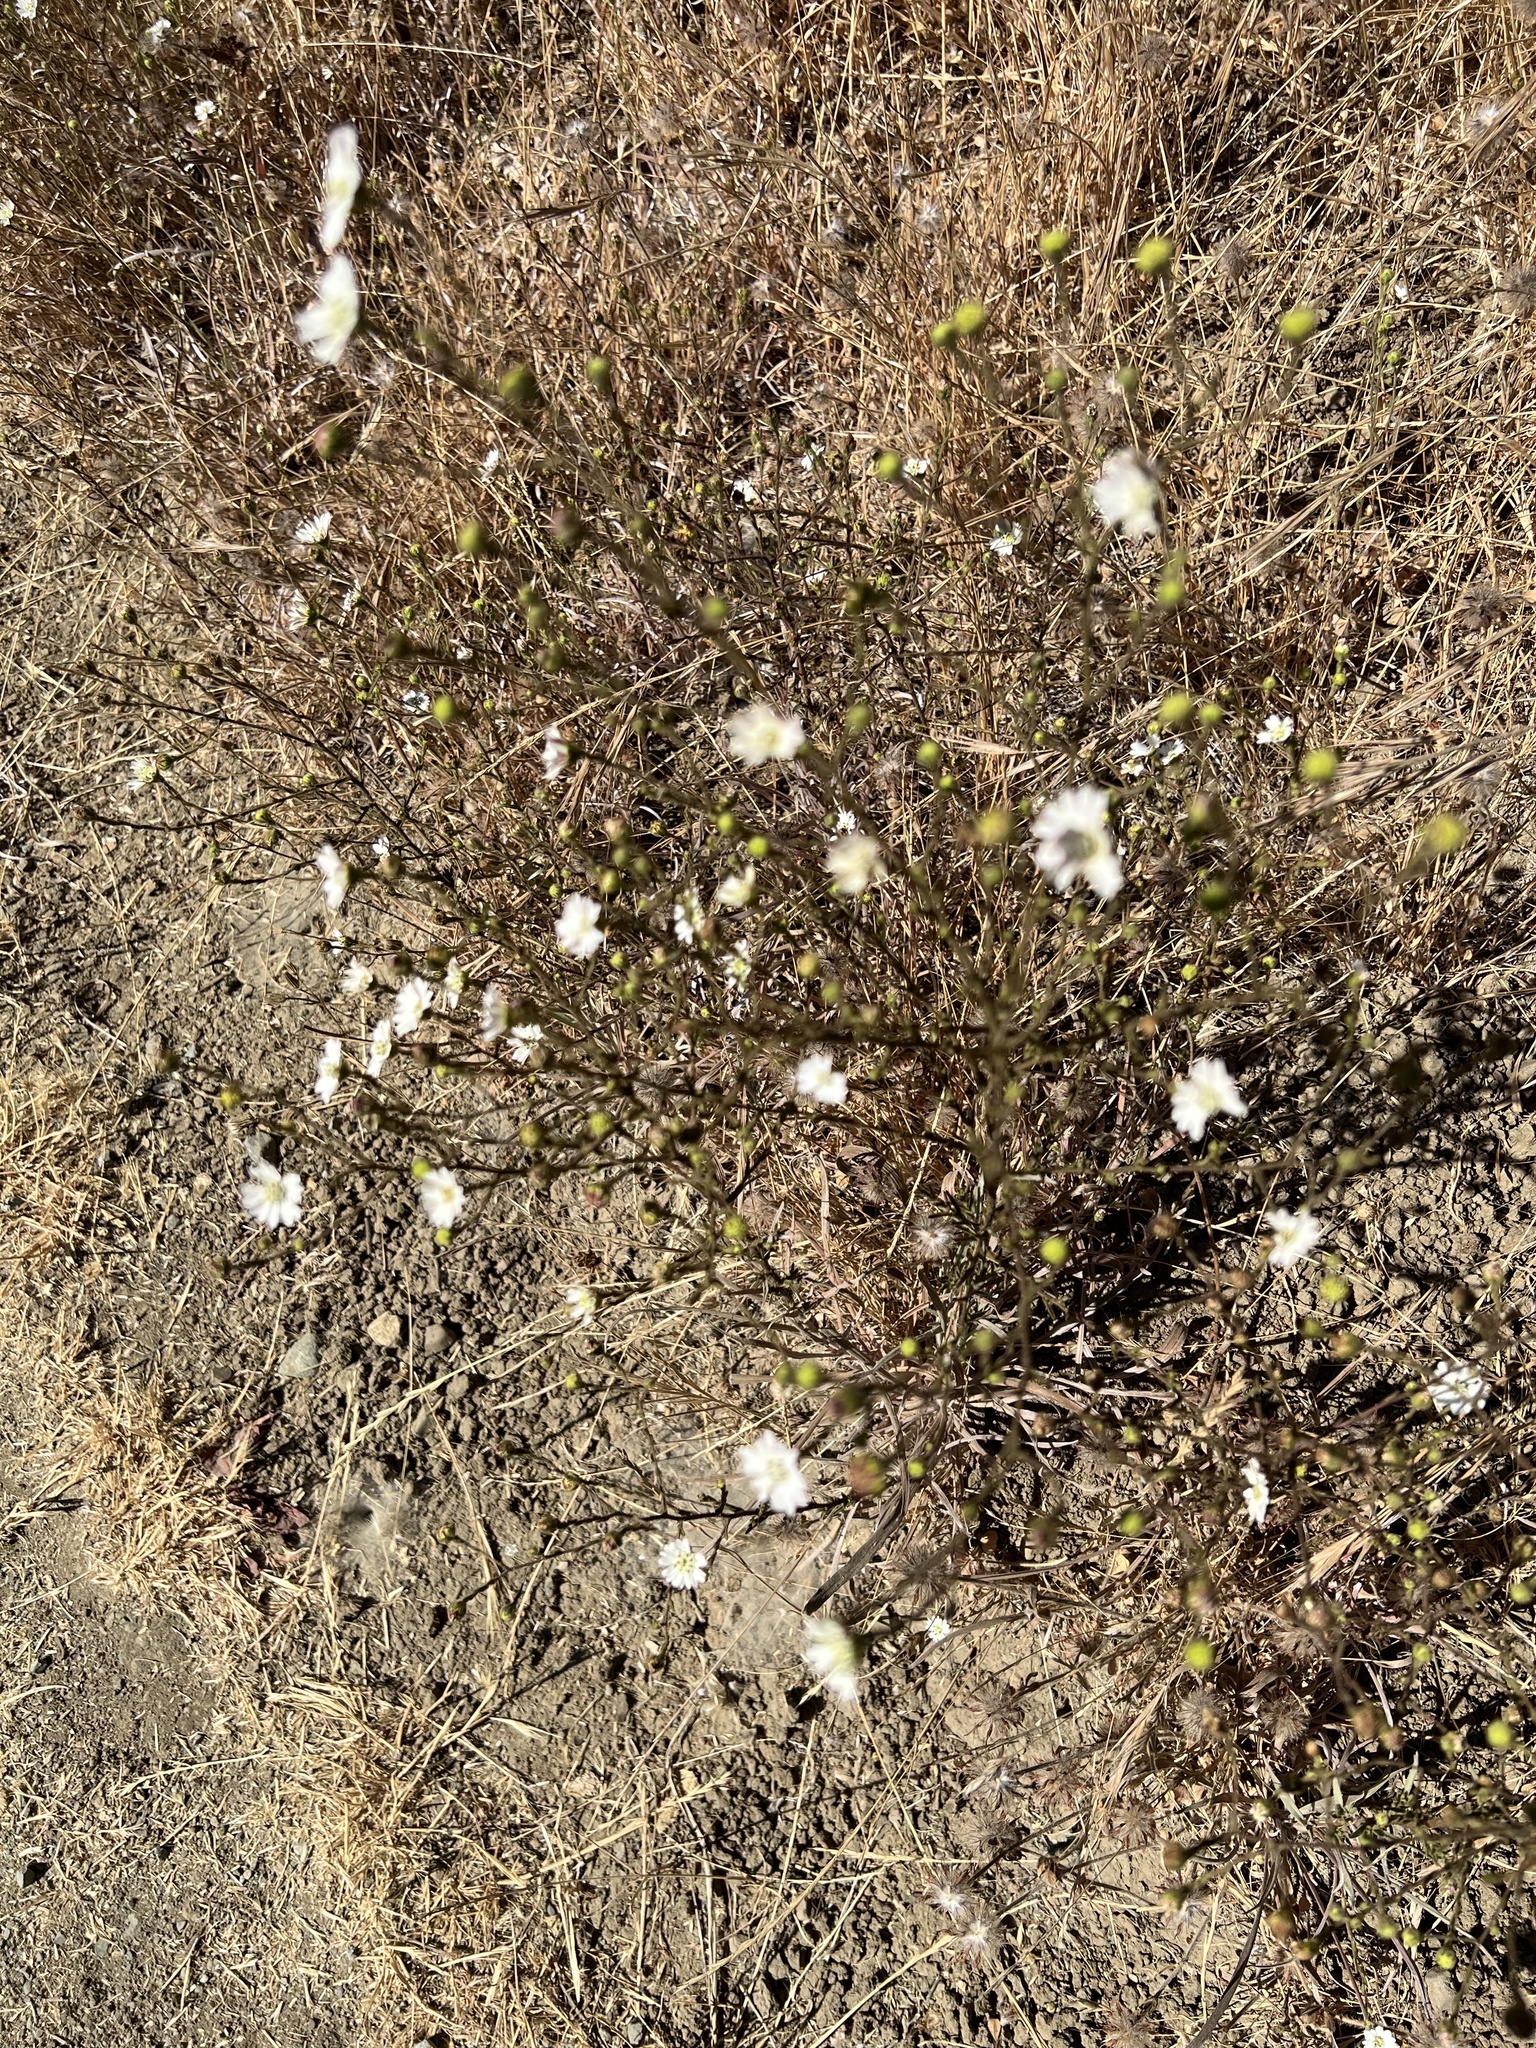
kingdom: Plantae
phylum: Tracheophyta
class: Magnoliopsida
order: Asterales
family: Asteraceae
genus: Hemizonia
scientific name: Hemizonia congesta
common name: Hayfield tarweed
